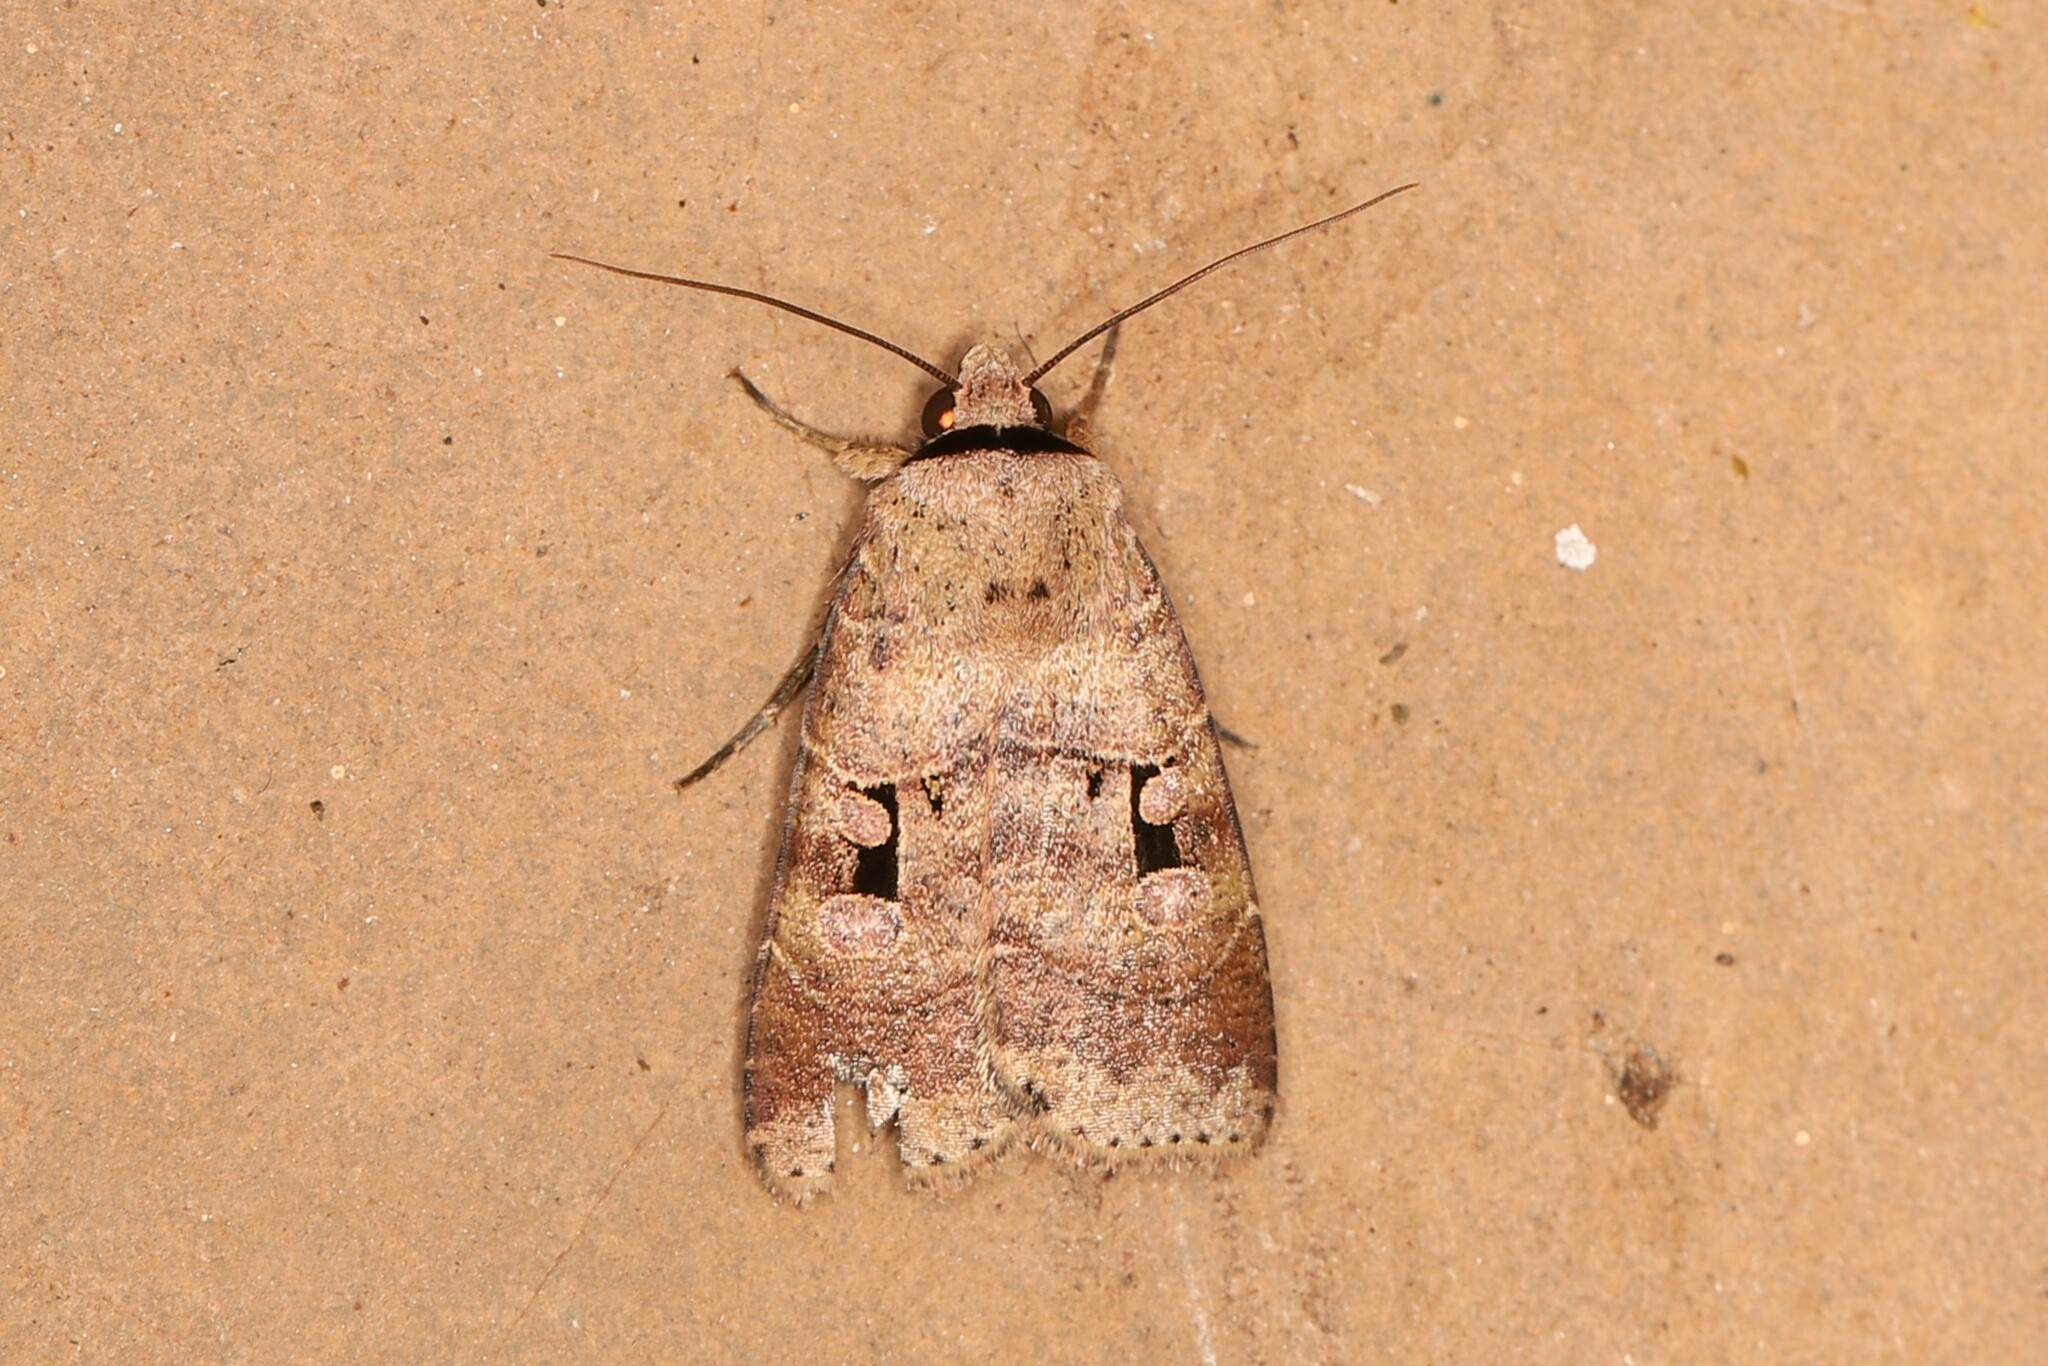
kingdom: Animalia
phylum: Arthropoda
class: Insecta
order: Lepidoptera
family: Noctuidae
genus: Praina
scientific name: Praina
